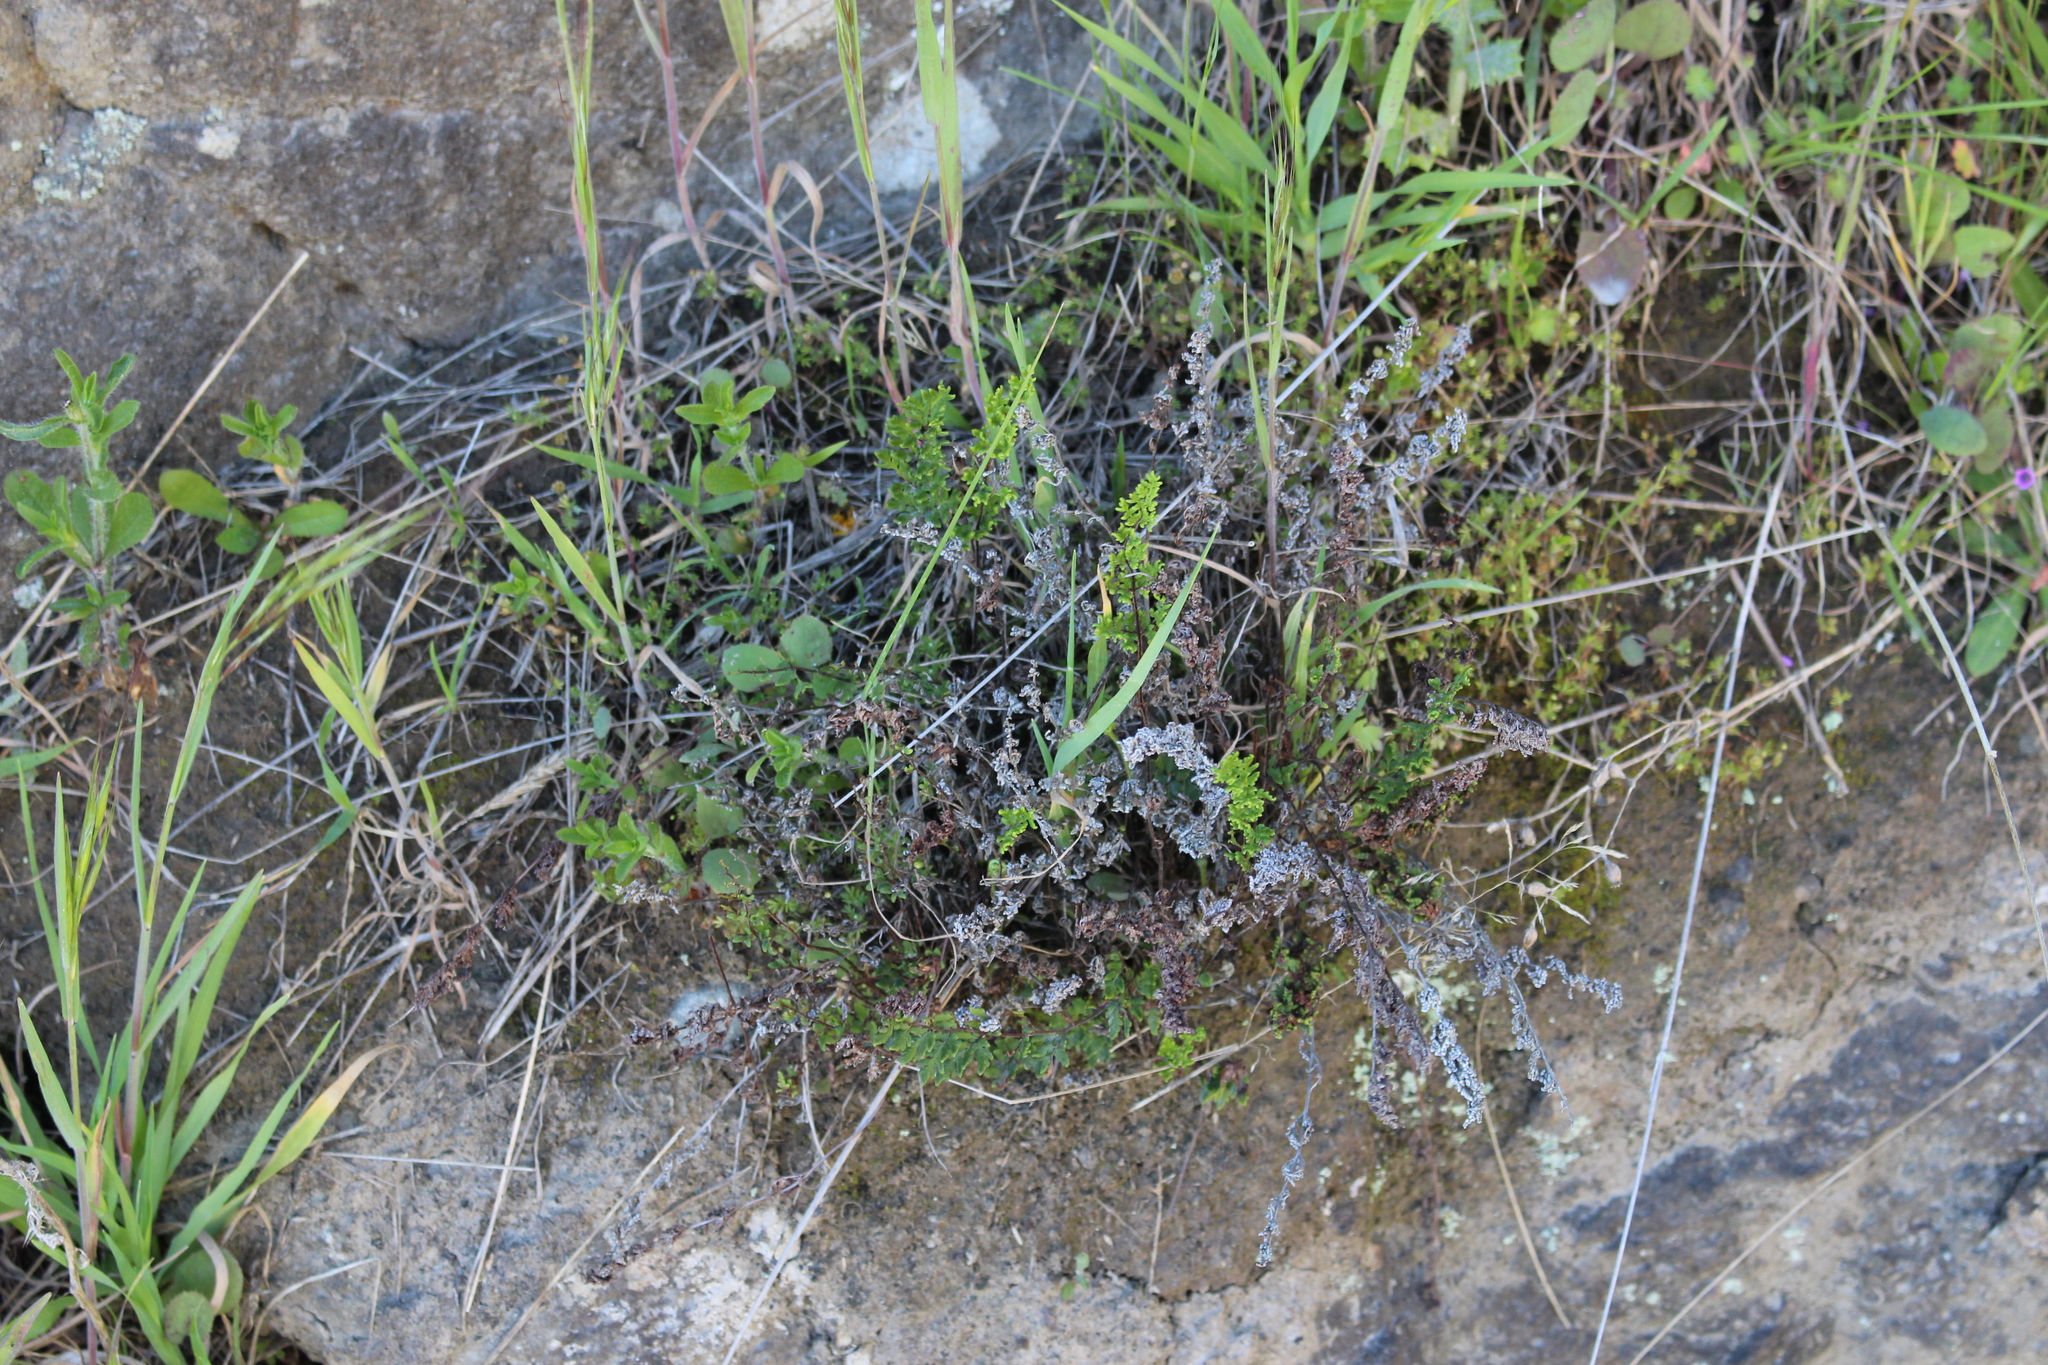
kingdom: Plantae
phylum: Tracheophyta
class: Polypodiopsida
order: Polypodiales
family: Pteridaceae
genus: Cheilanthes
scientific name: Cheilanthes distans
